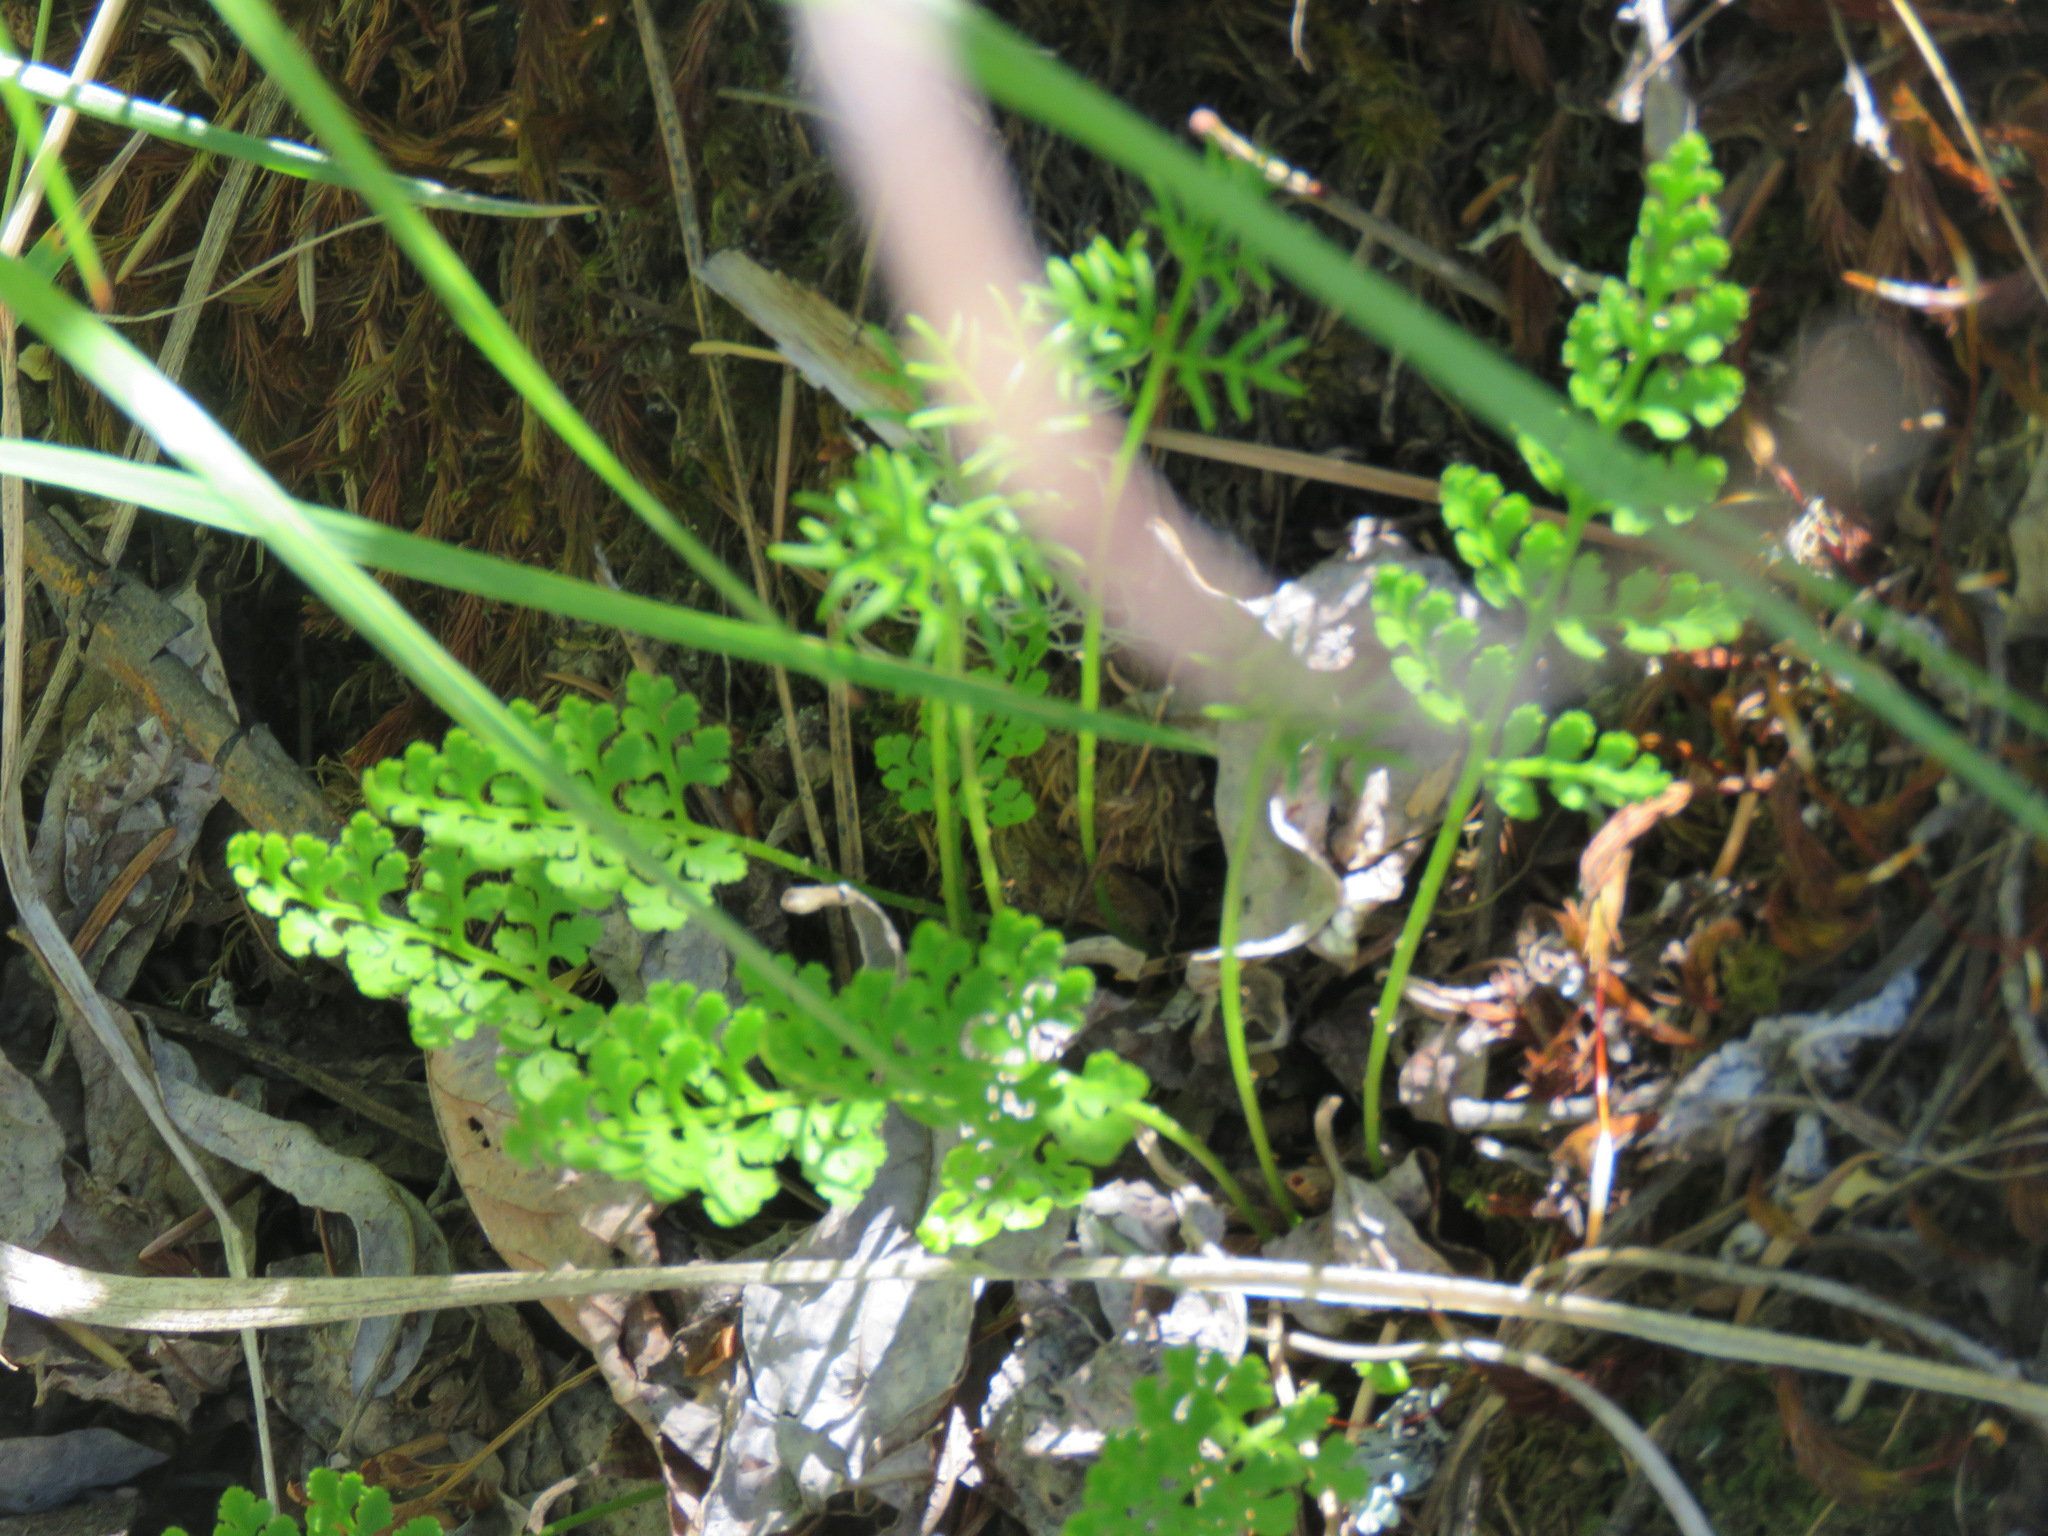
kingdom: Plantae
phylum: Tracheophyta
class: Polypodiopsida
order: Polypodiales
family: Pteridaceae
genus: Cryptogramma
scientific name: Cryptogramma acrostichoides
